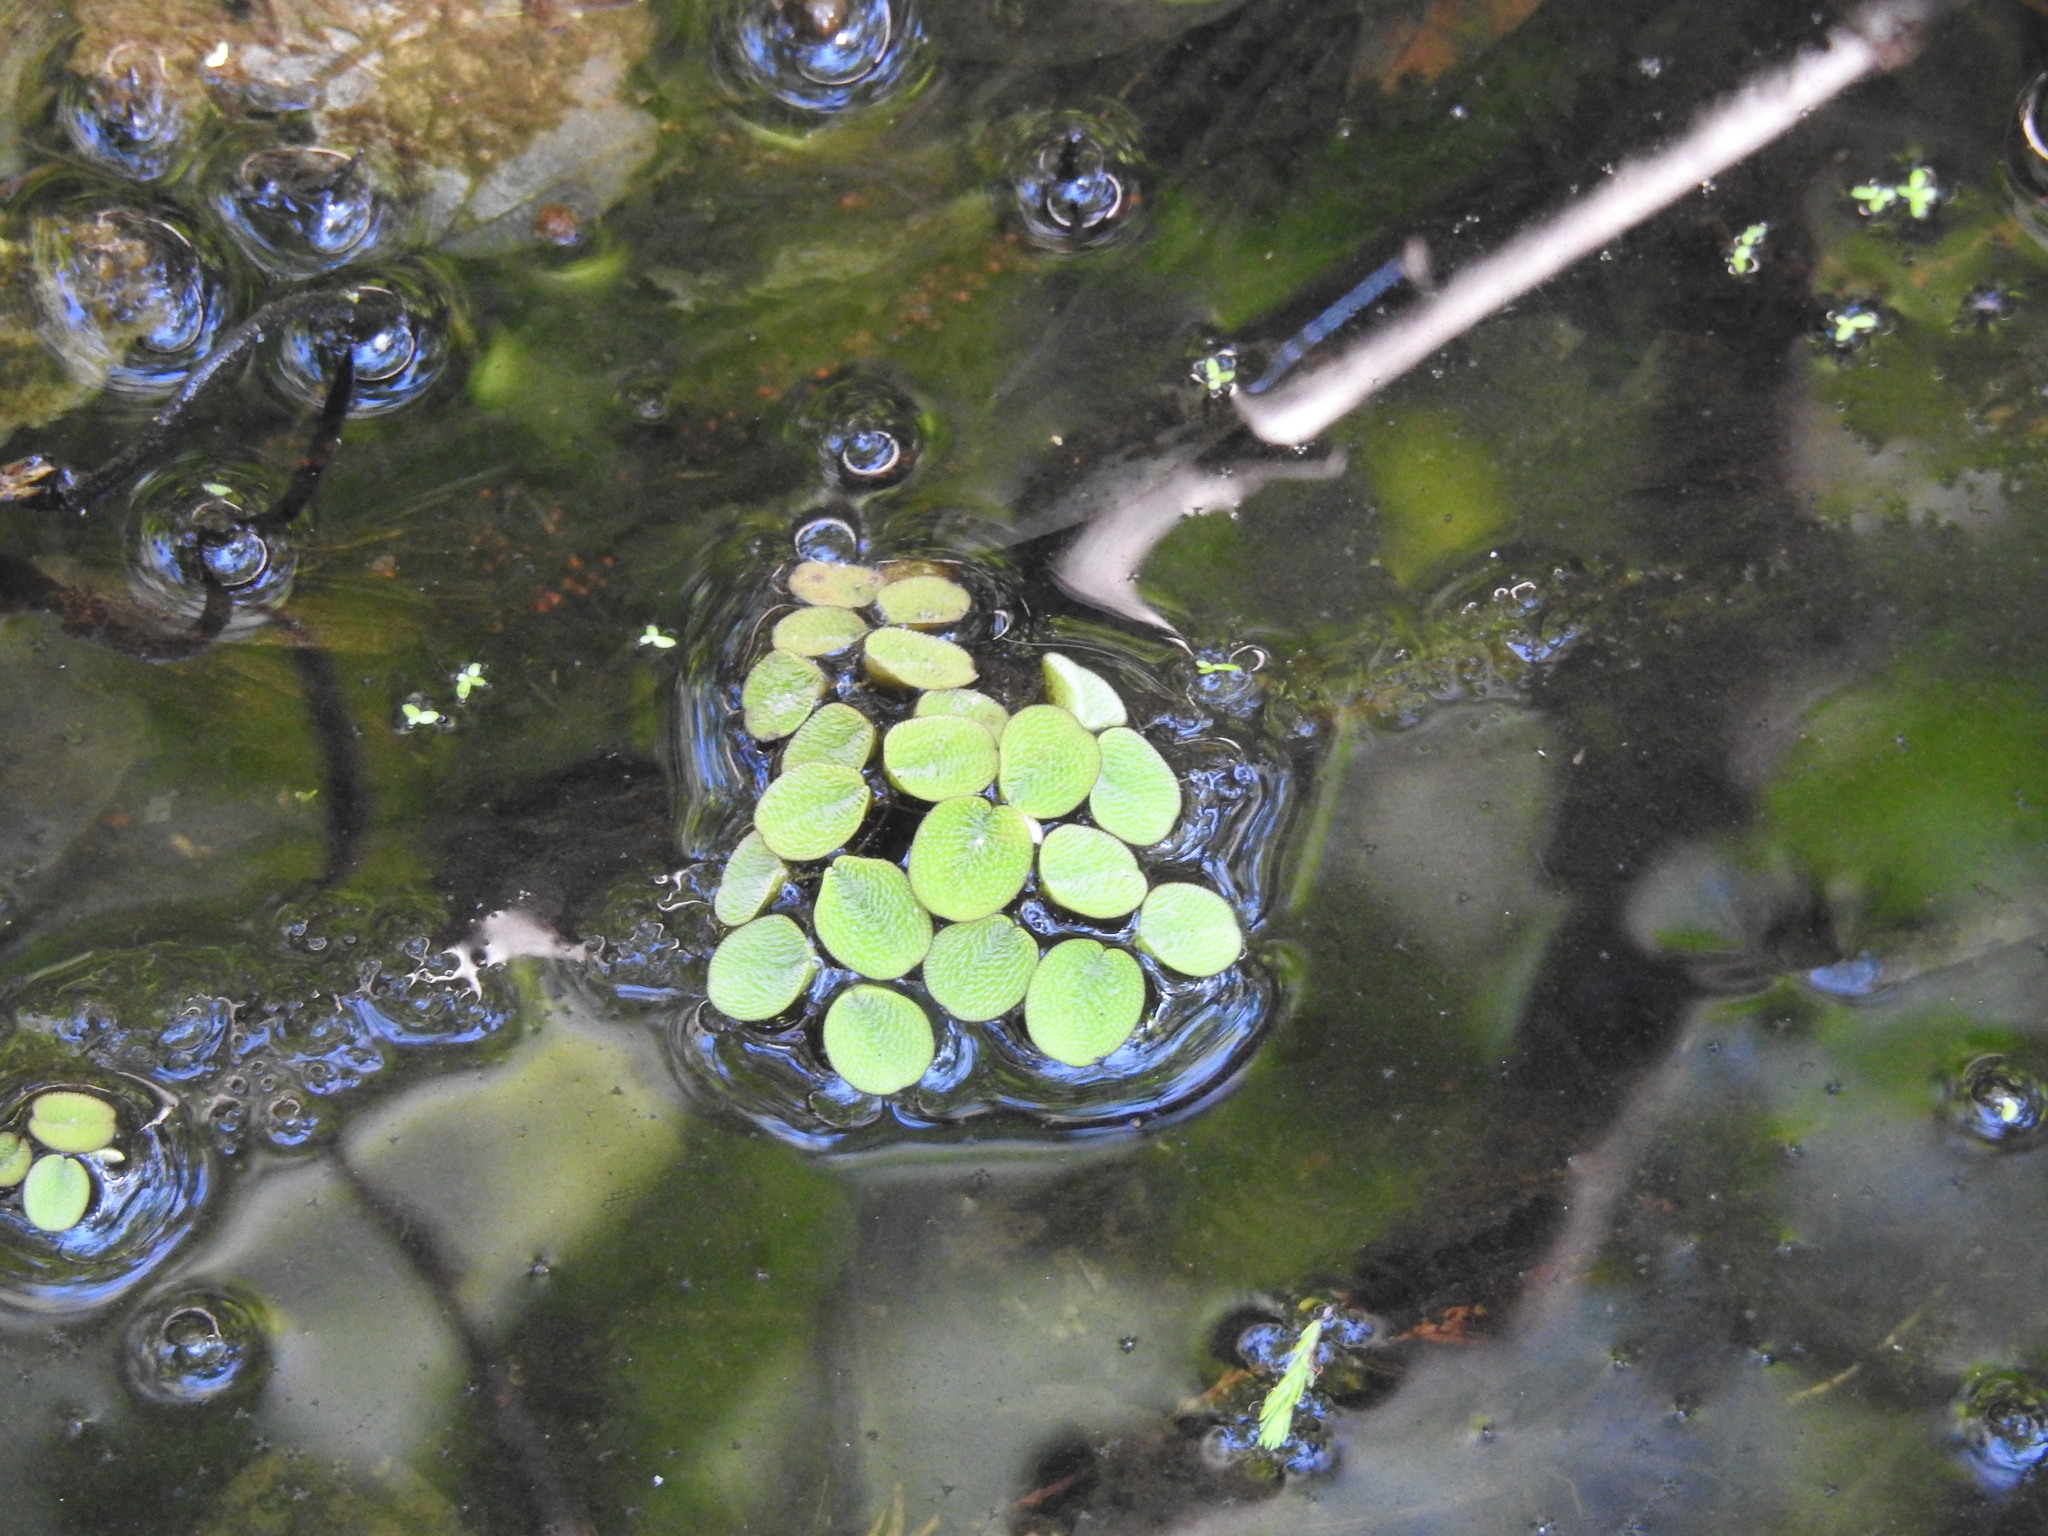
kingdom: Plantae
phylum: Tracheophyta
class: Polypodiopsida
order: Salviniales
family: Salviniaceae
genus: Salvinia
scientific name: Salvinia minima
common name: Water spangles
